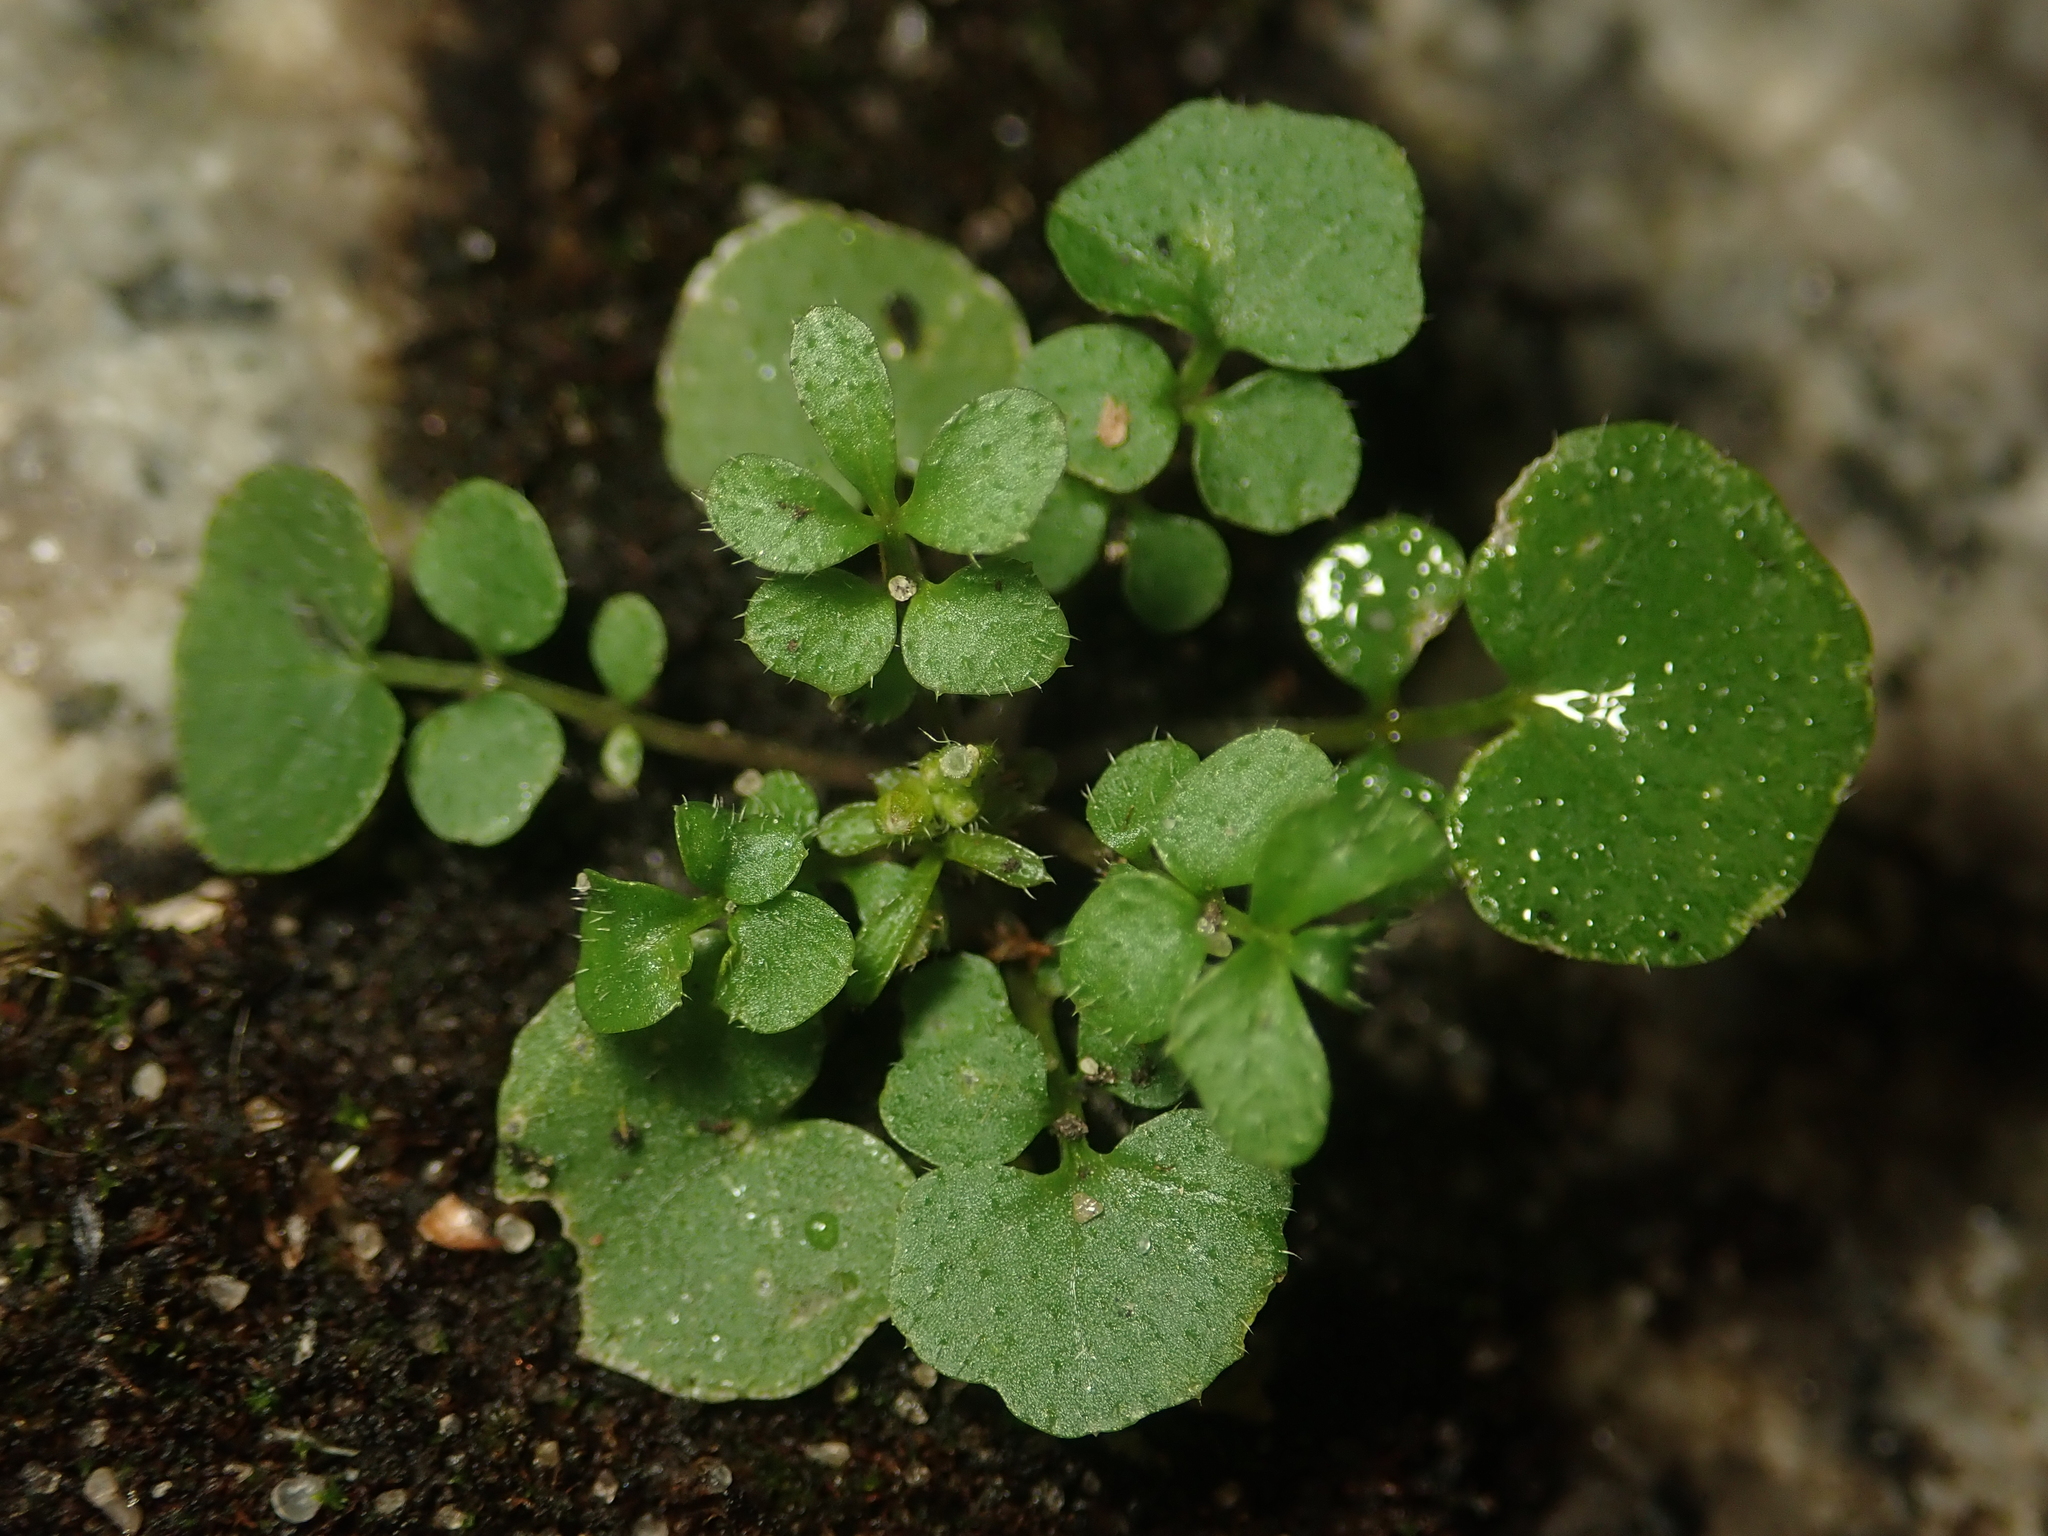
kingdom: Plantae
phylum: Tracheophyta
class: Magnoliopsida
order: Brassicales
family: Brassicaceae
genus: Cardamine
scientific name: Cardamine hirsuta
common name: Hairy bittercress
